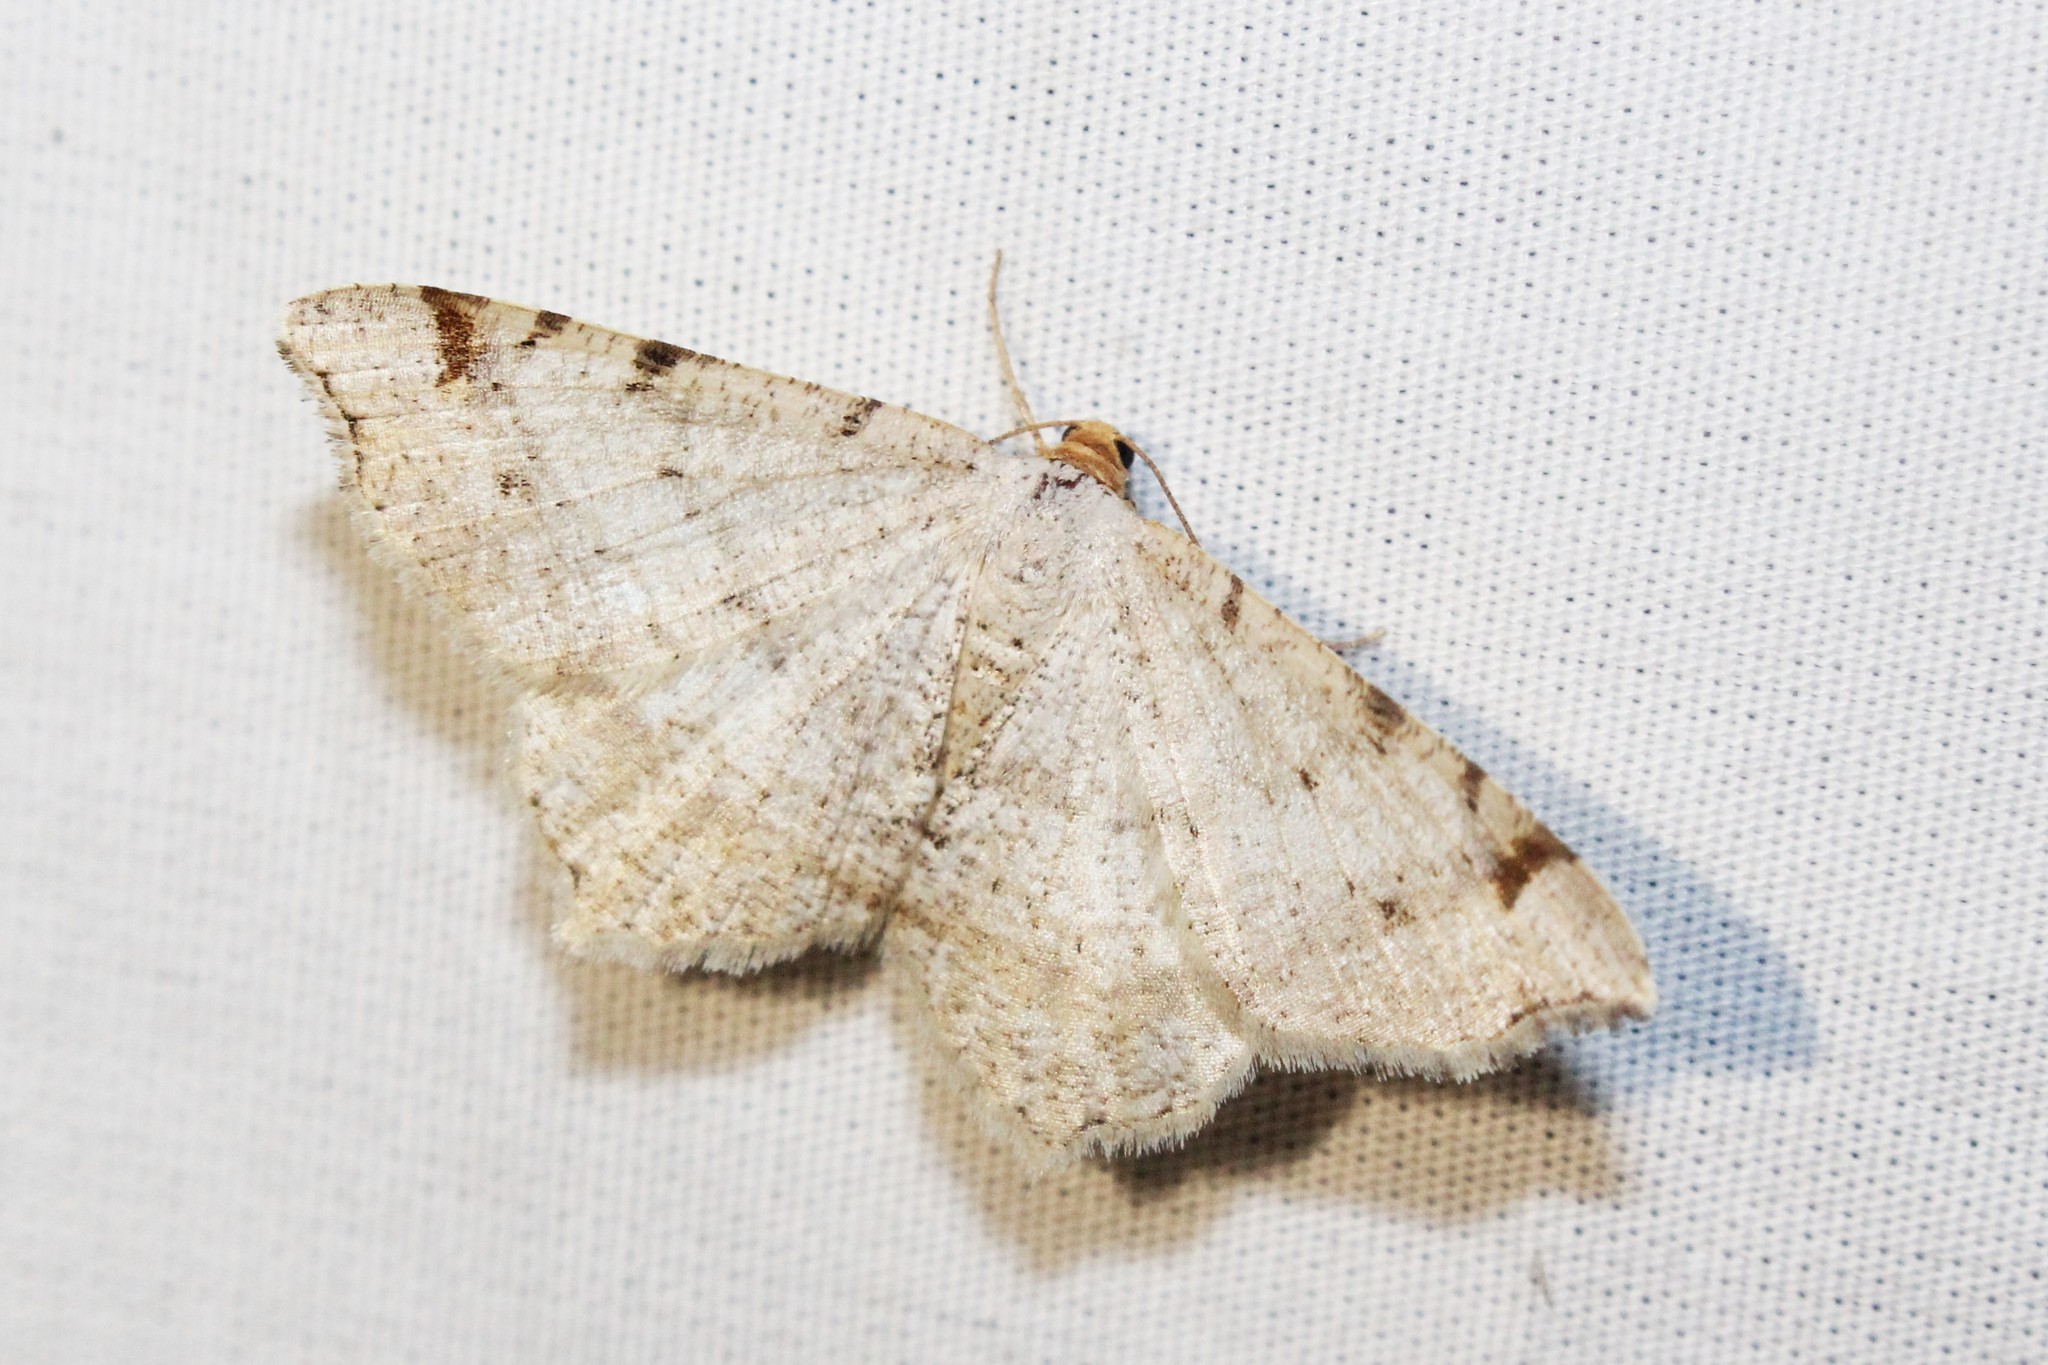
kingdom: Animalia
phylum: Arthropoda
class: Insecta
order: Lepidoptera
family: Geometridae
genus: Macaria
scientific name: Macaria bisignata
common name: Red-headed inchworm
